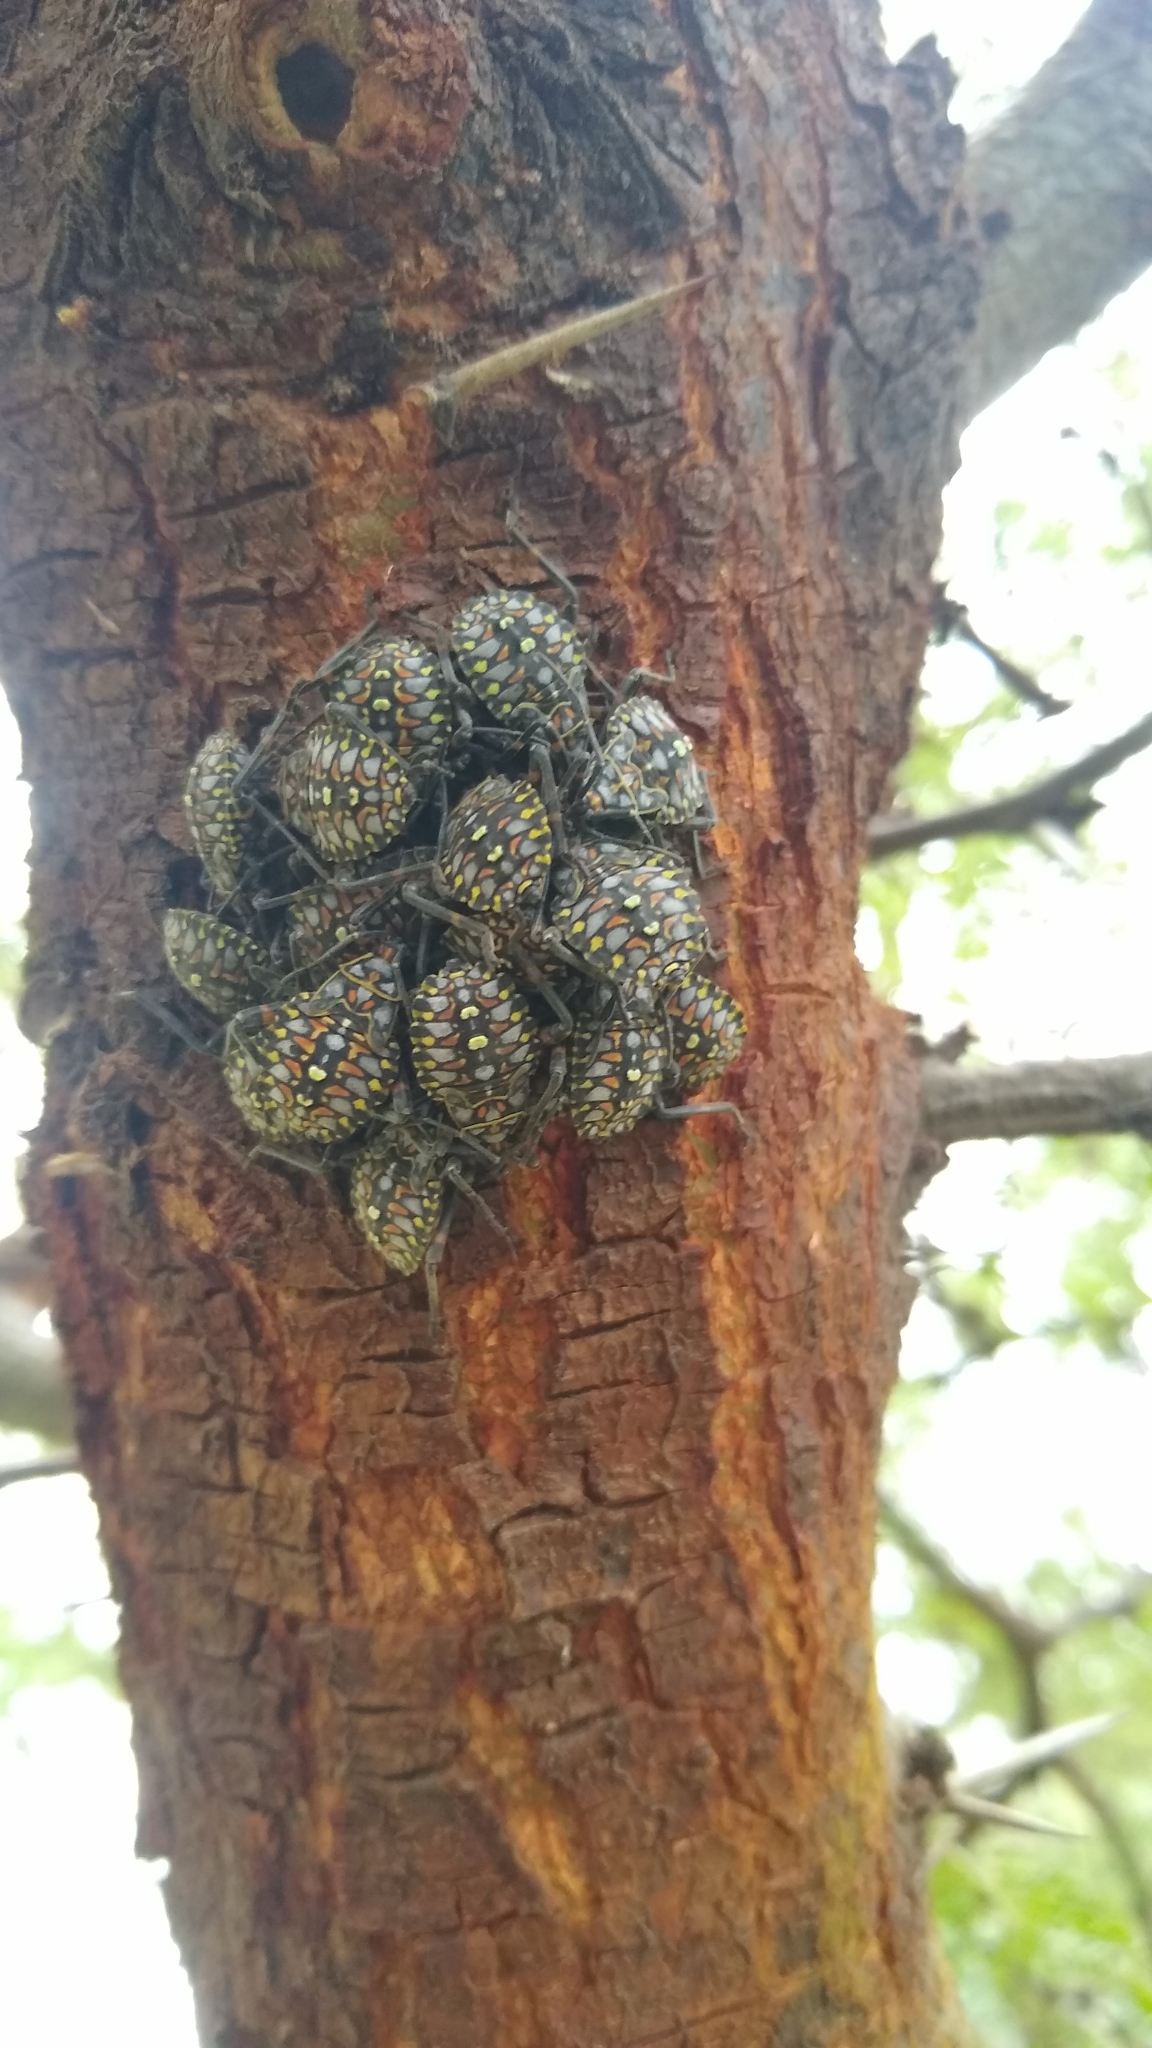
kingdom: Animalia
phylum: Arthropoda
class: Insecta
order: Hemiptera
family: Coreidae
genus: Pachylis
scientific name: Pachylis argentinus
